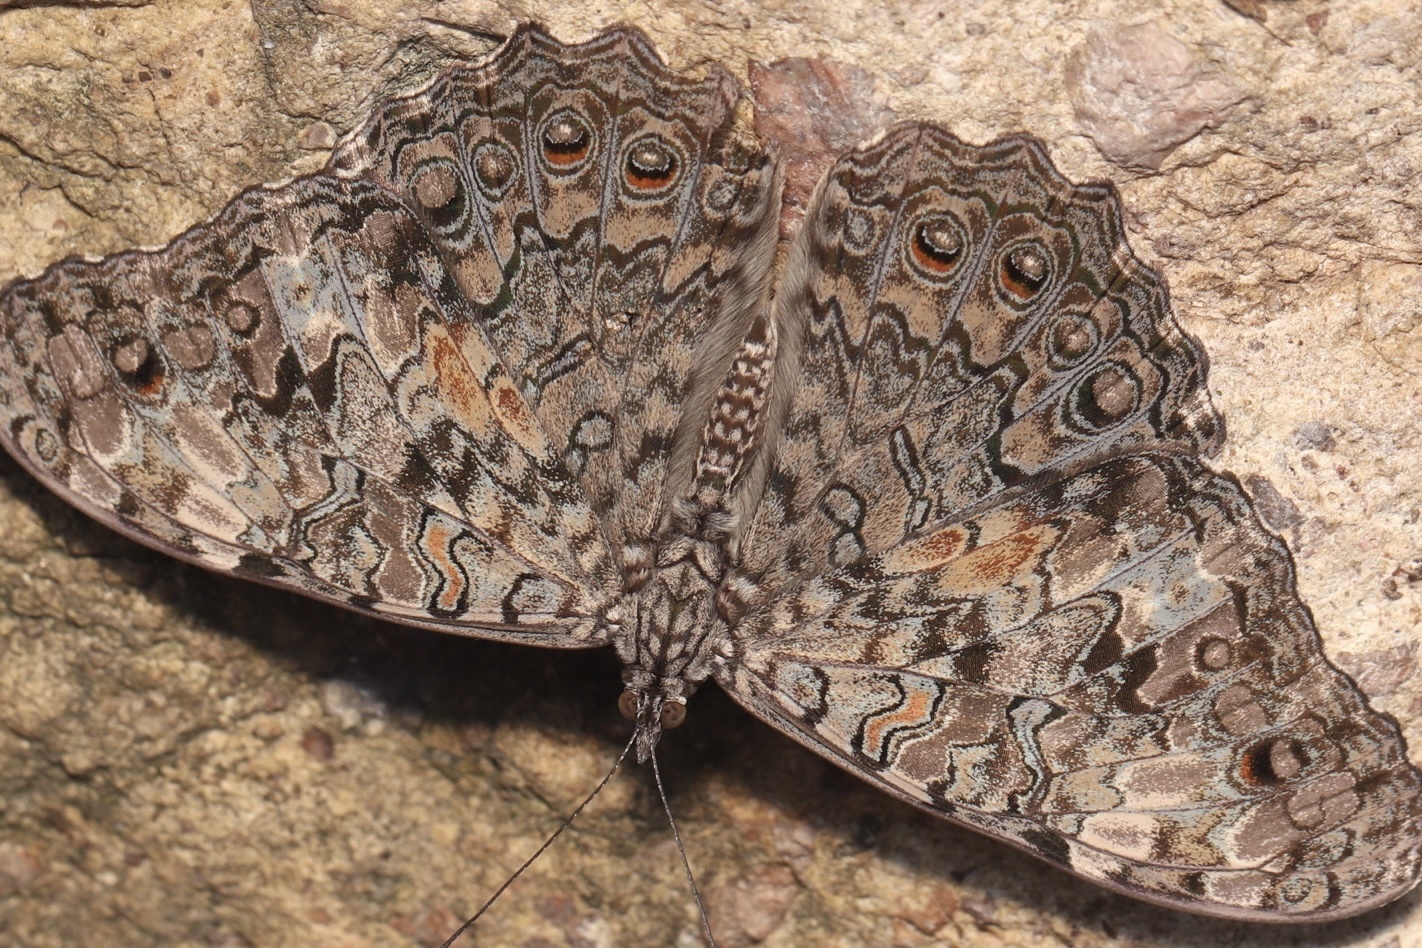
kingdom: Animalia
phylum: Arthropoda
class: Insecta
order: Lepidoptera
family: Nymphalidae
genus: Hamadryas
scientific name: Hamadryas februa
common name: Gray cracker
